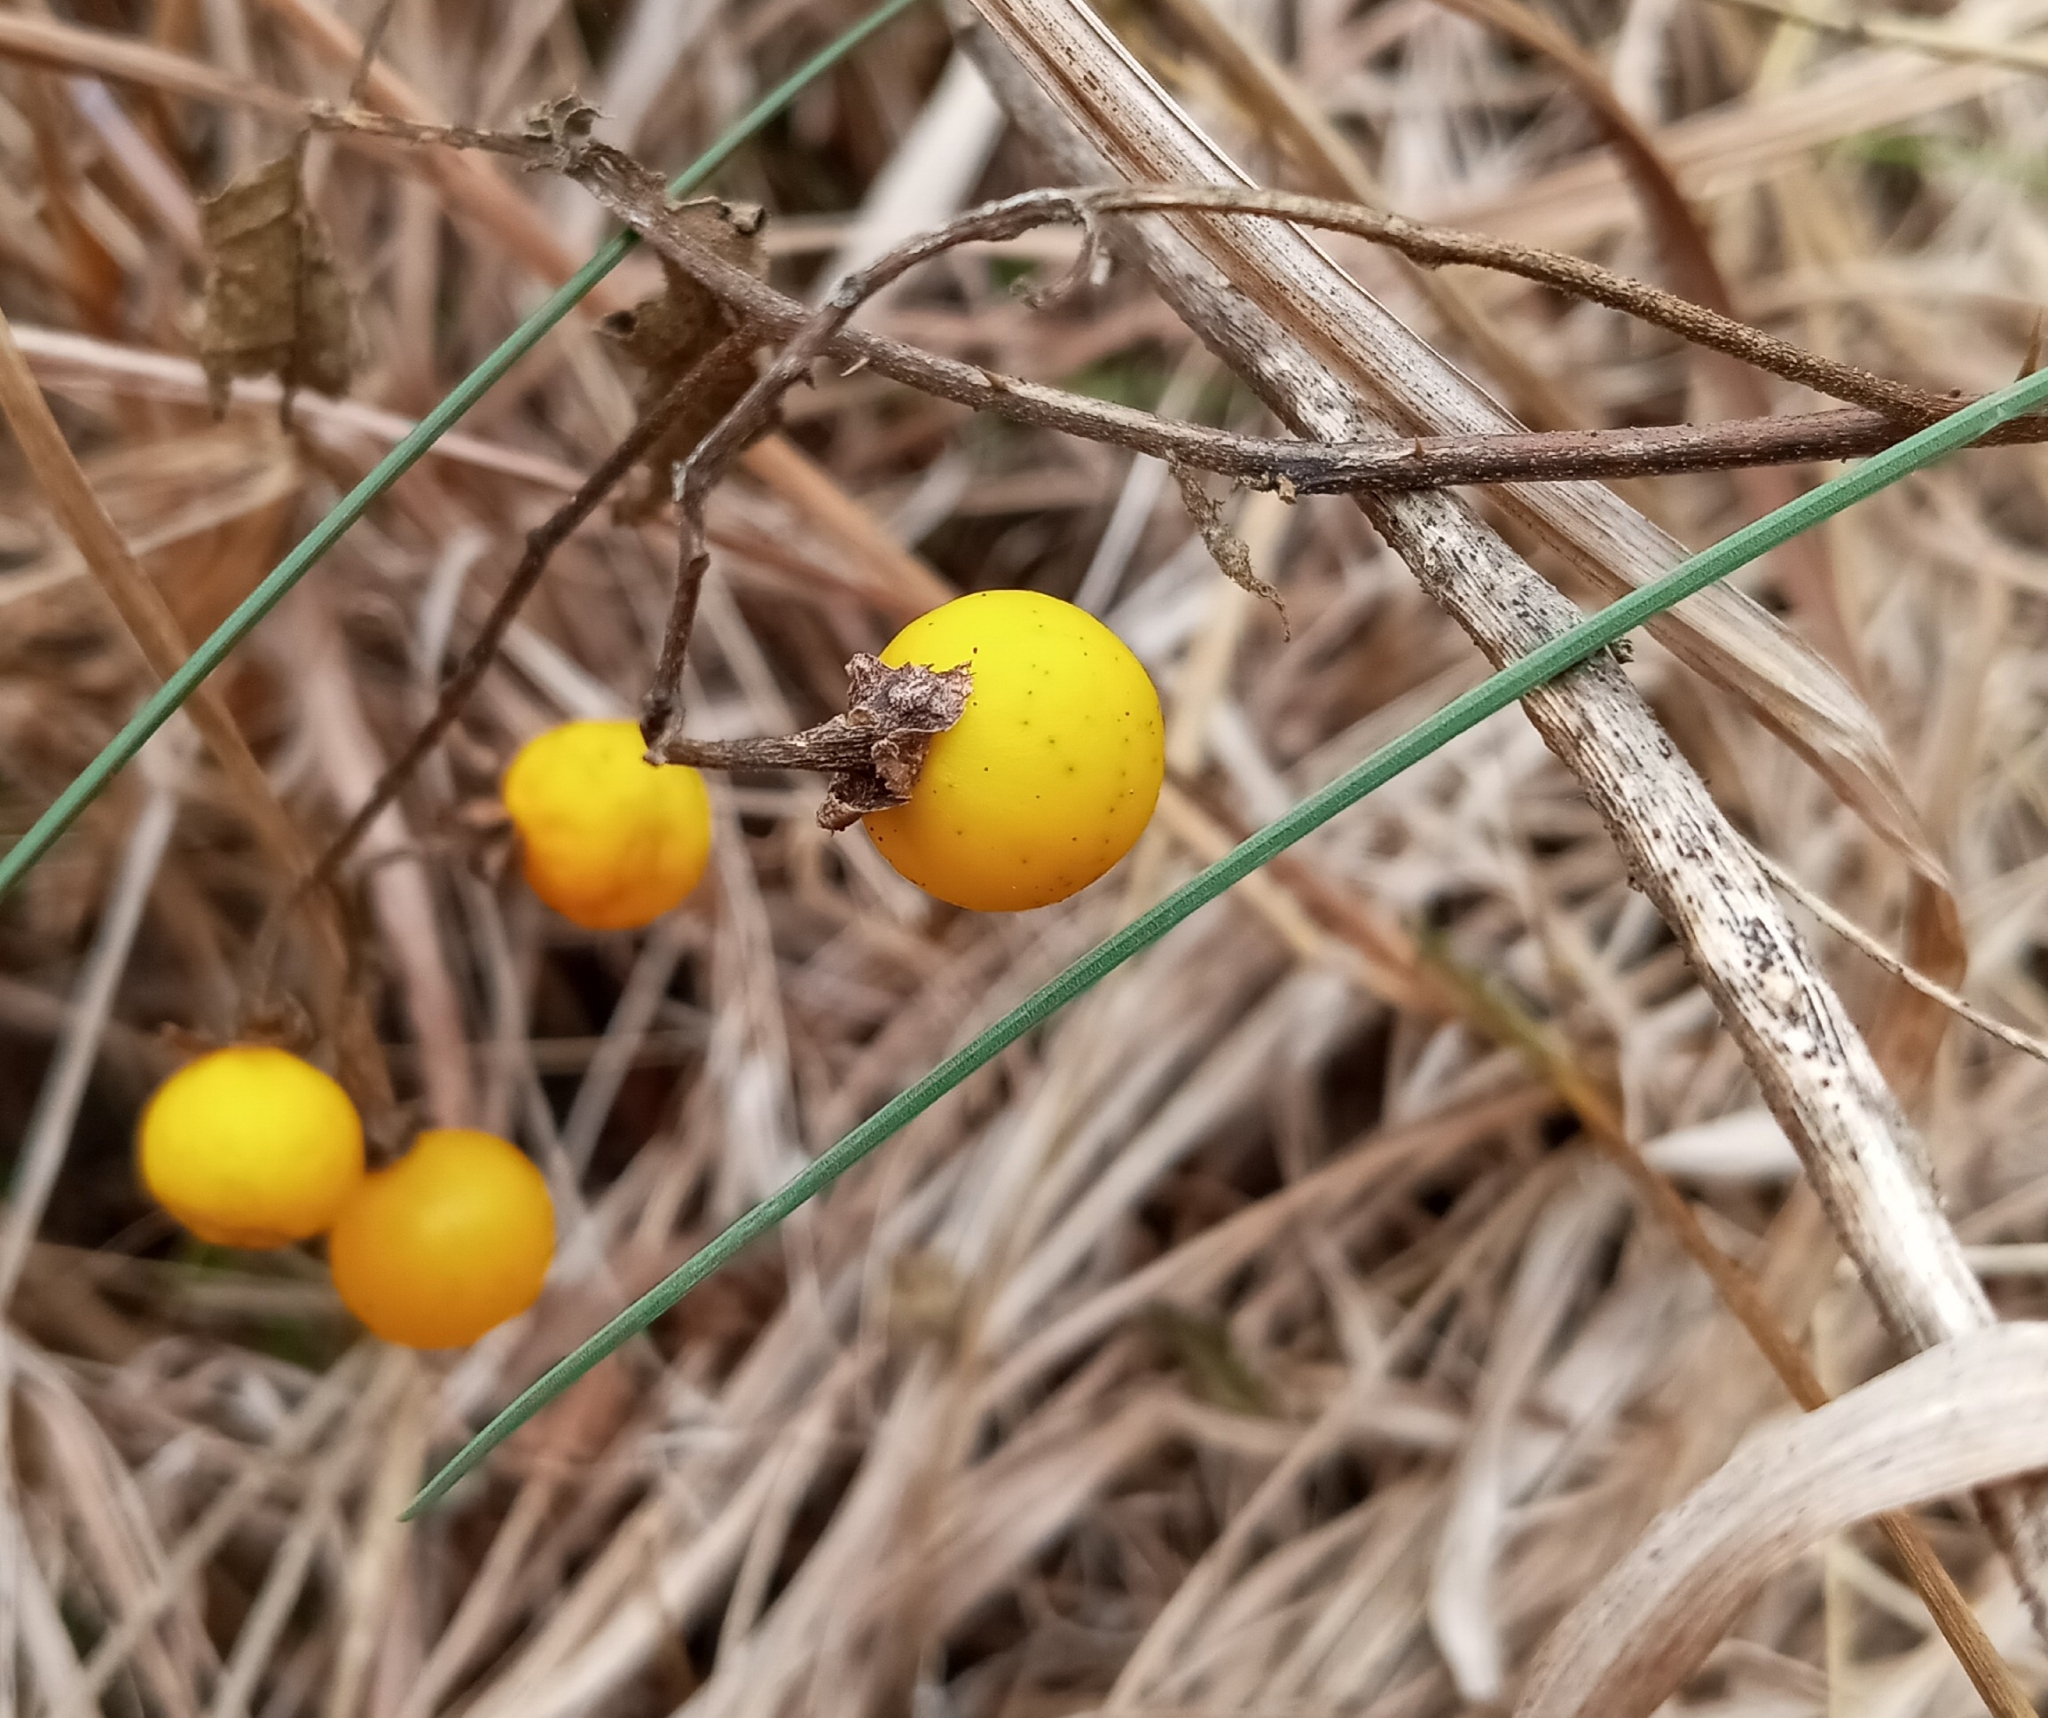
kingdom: Plantae
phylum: Tracheophyta
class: Magnoliopsida
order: Solanales
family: Solanaceae
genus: Solanum
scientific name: Solanum carolinense
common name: Horse-nettle
